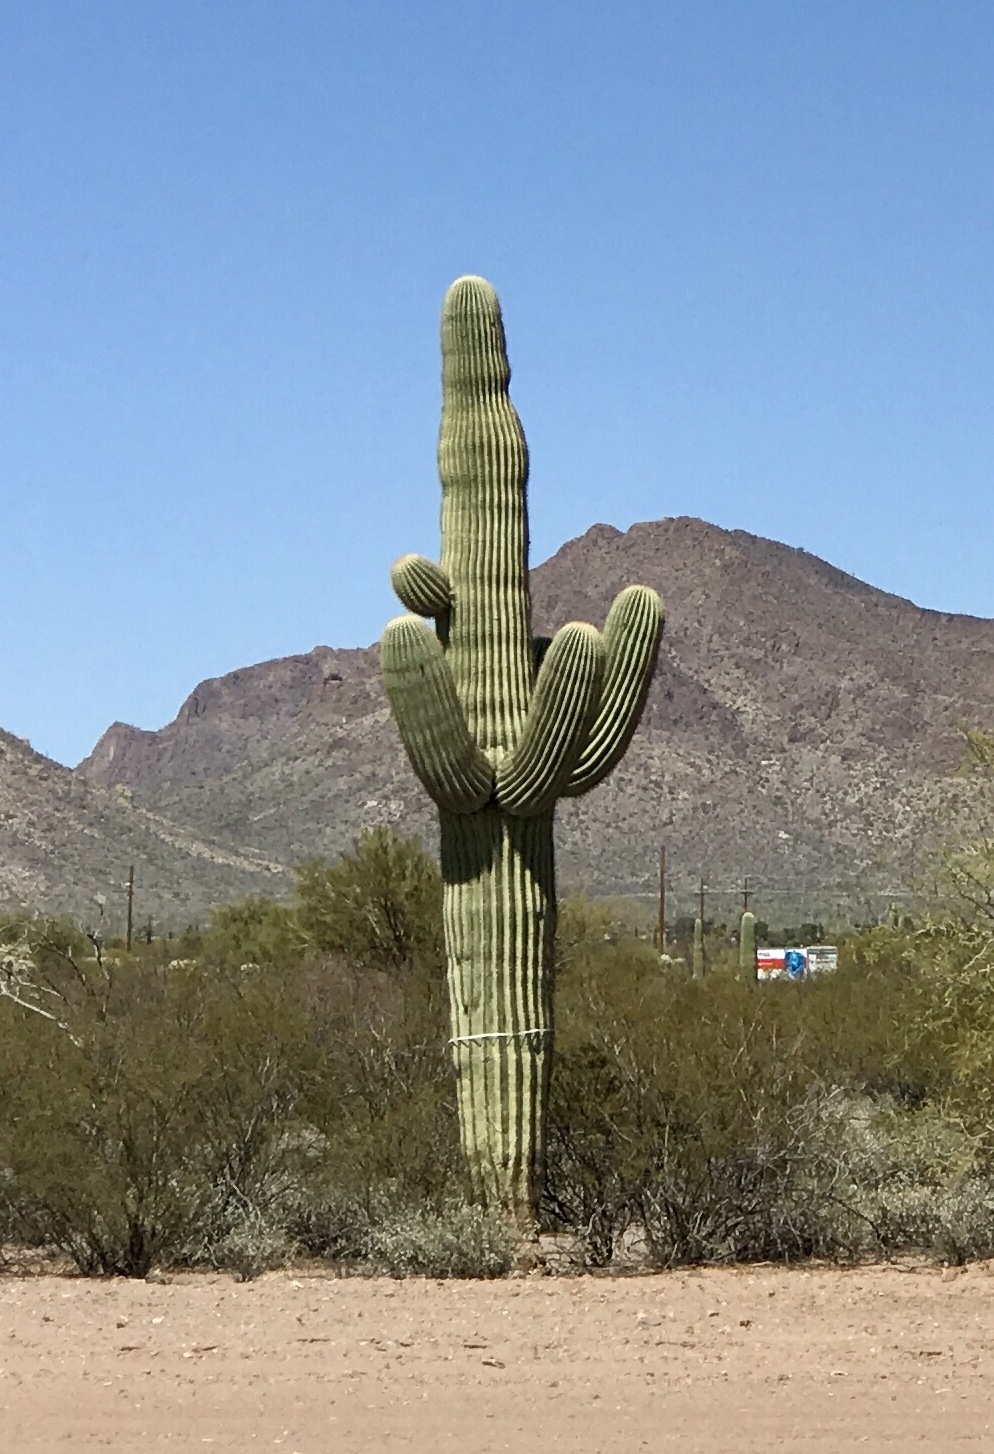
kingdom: Plantae
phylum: Tracheophyta
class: Magnoliopsida
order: Caryophyllales
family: Cactaceae
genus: Carnegiea
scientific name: Carnegiea gigantea
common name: Saguaro
